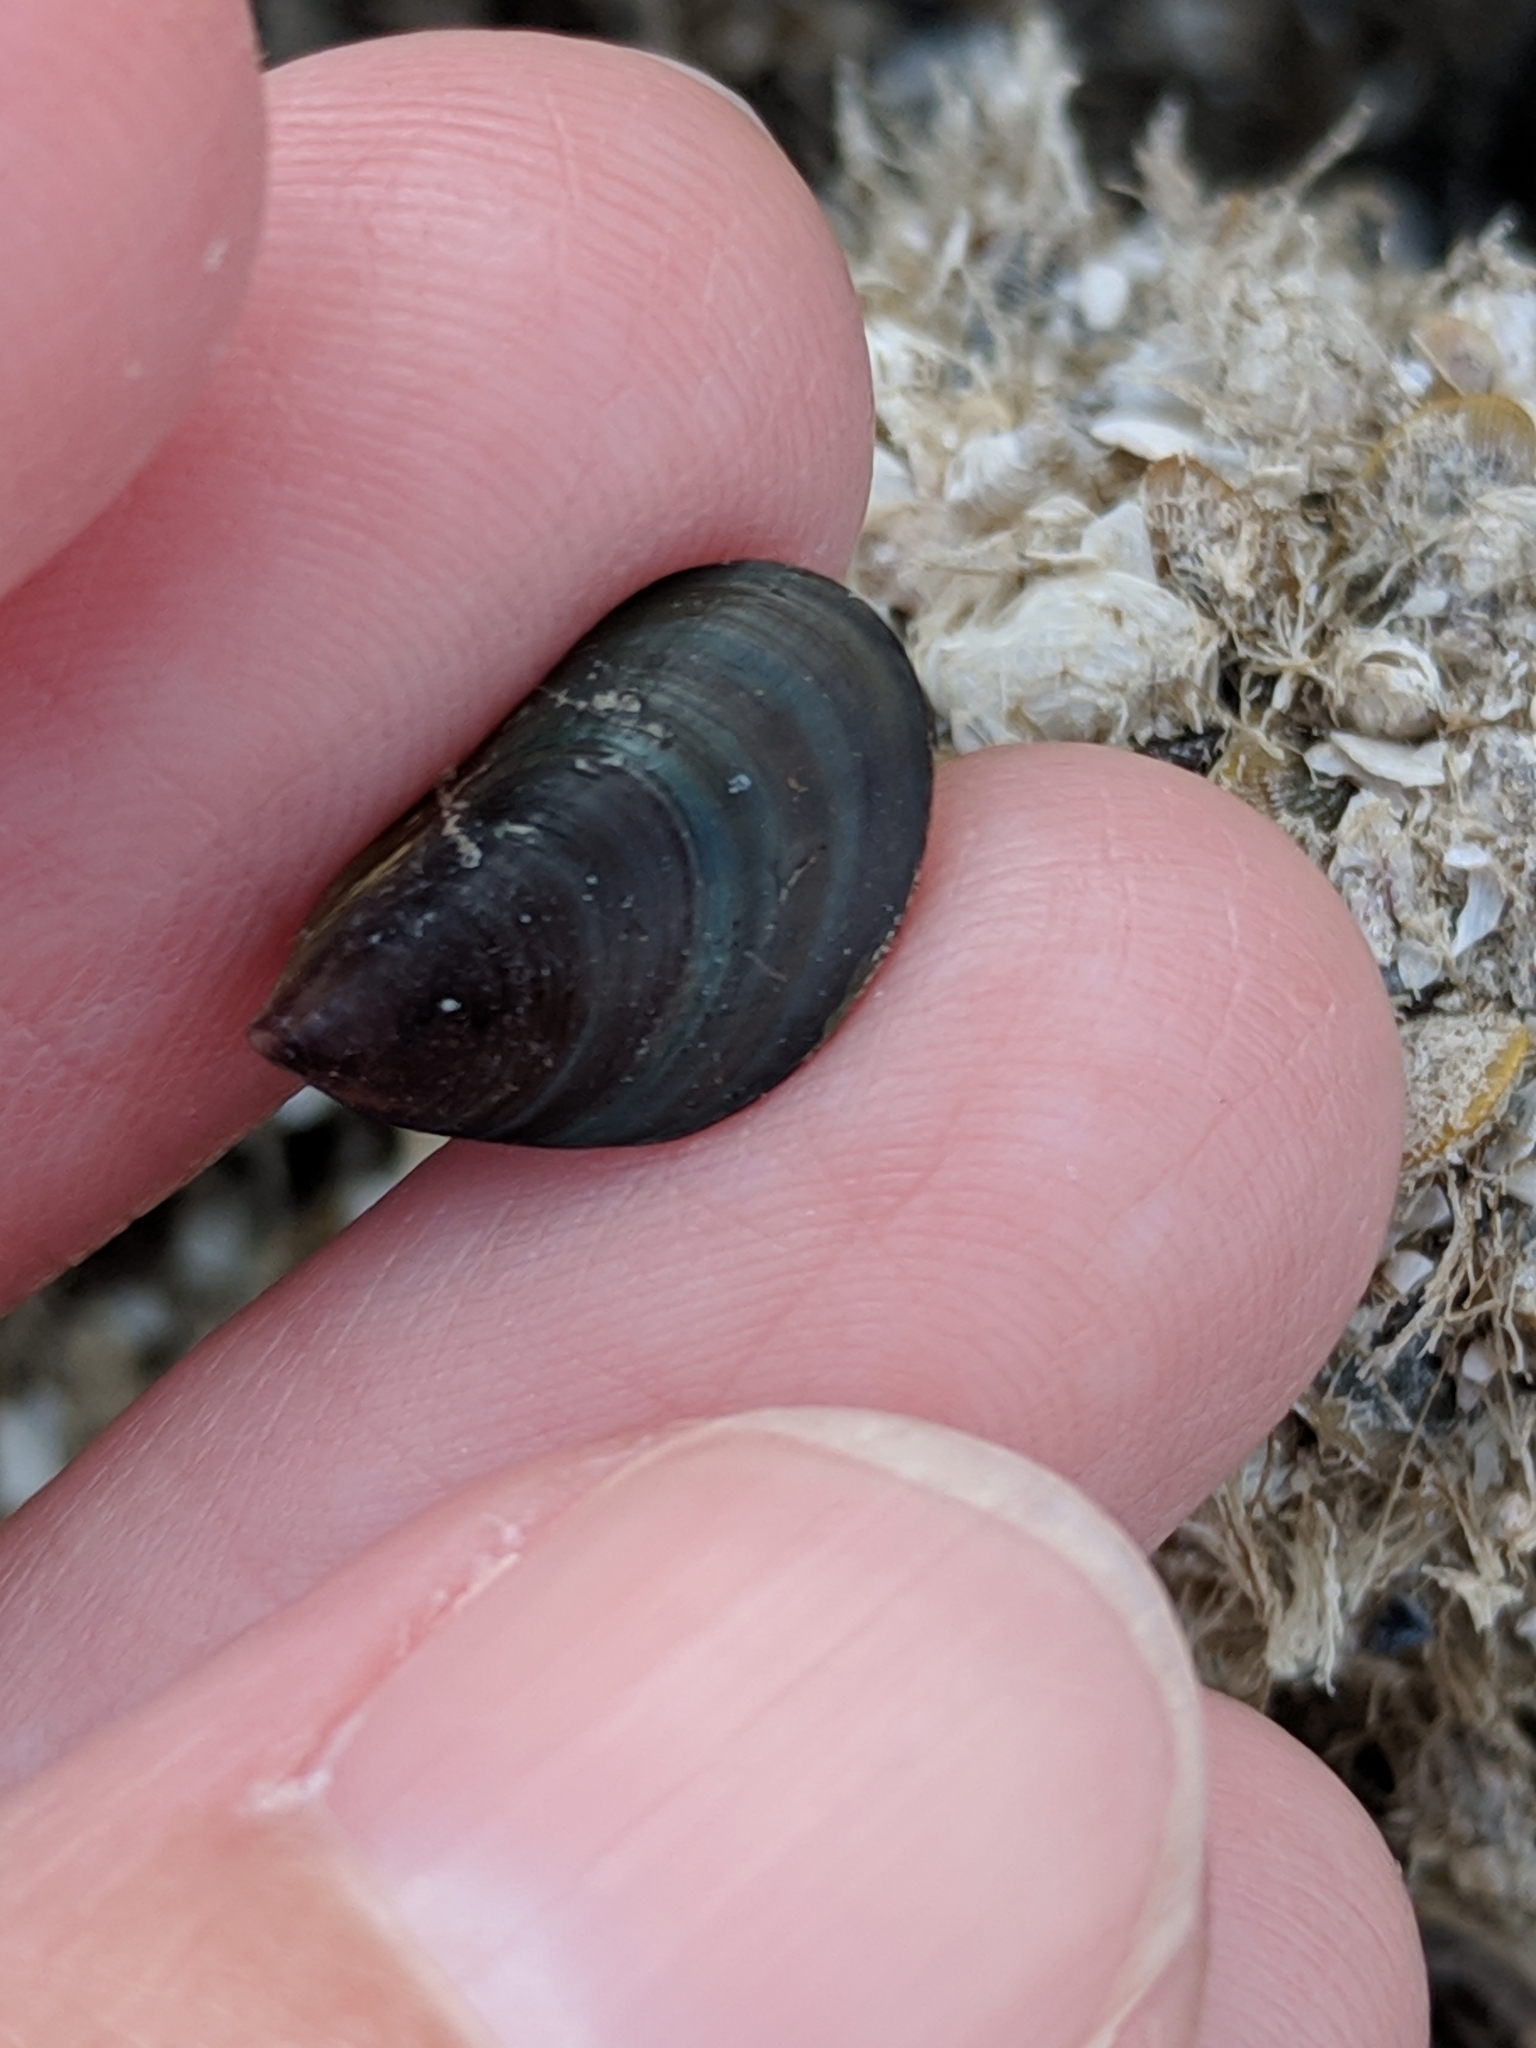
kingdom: Animalia
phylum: Mollusca
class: Bivalvia
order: Mytilida
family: Mytilidae
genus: Perna
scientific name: Perna viridis
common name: Green mussel
